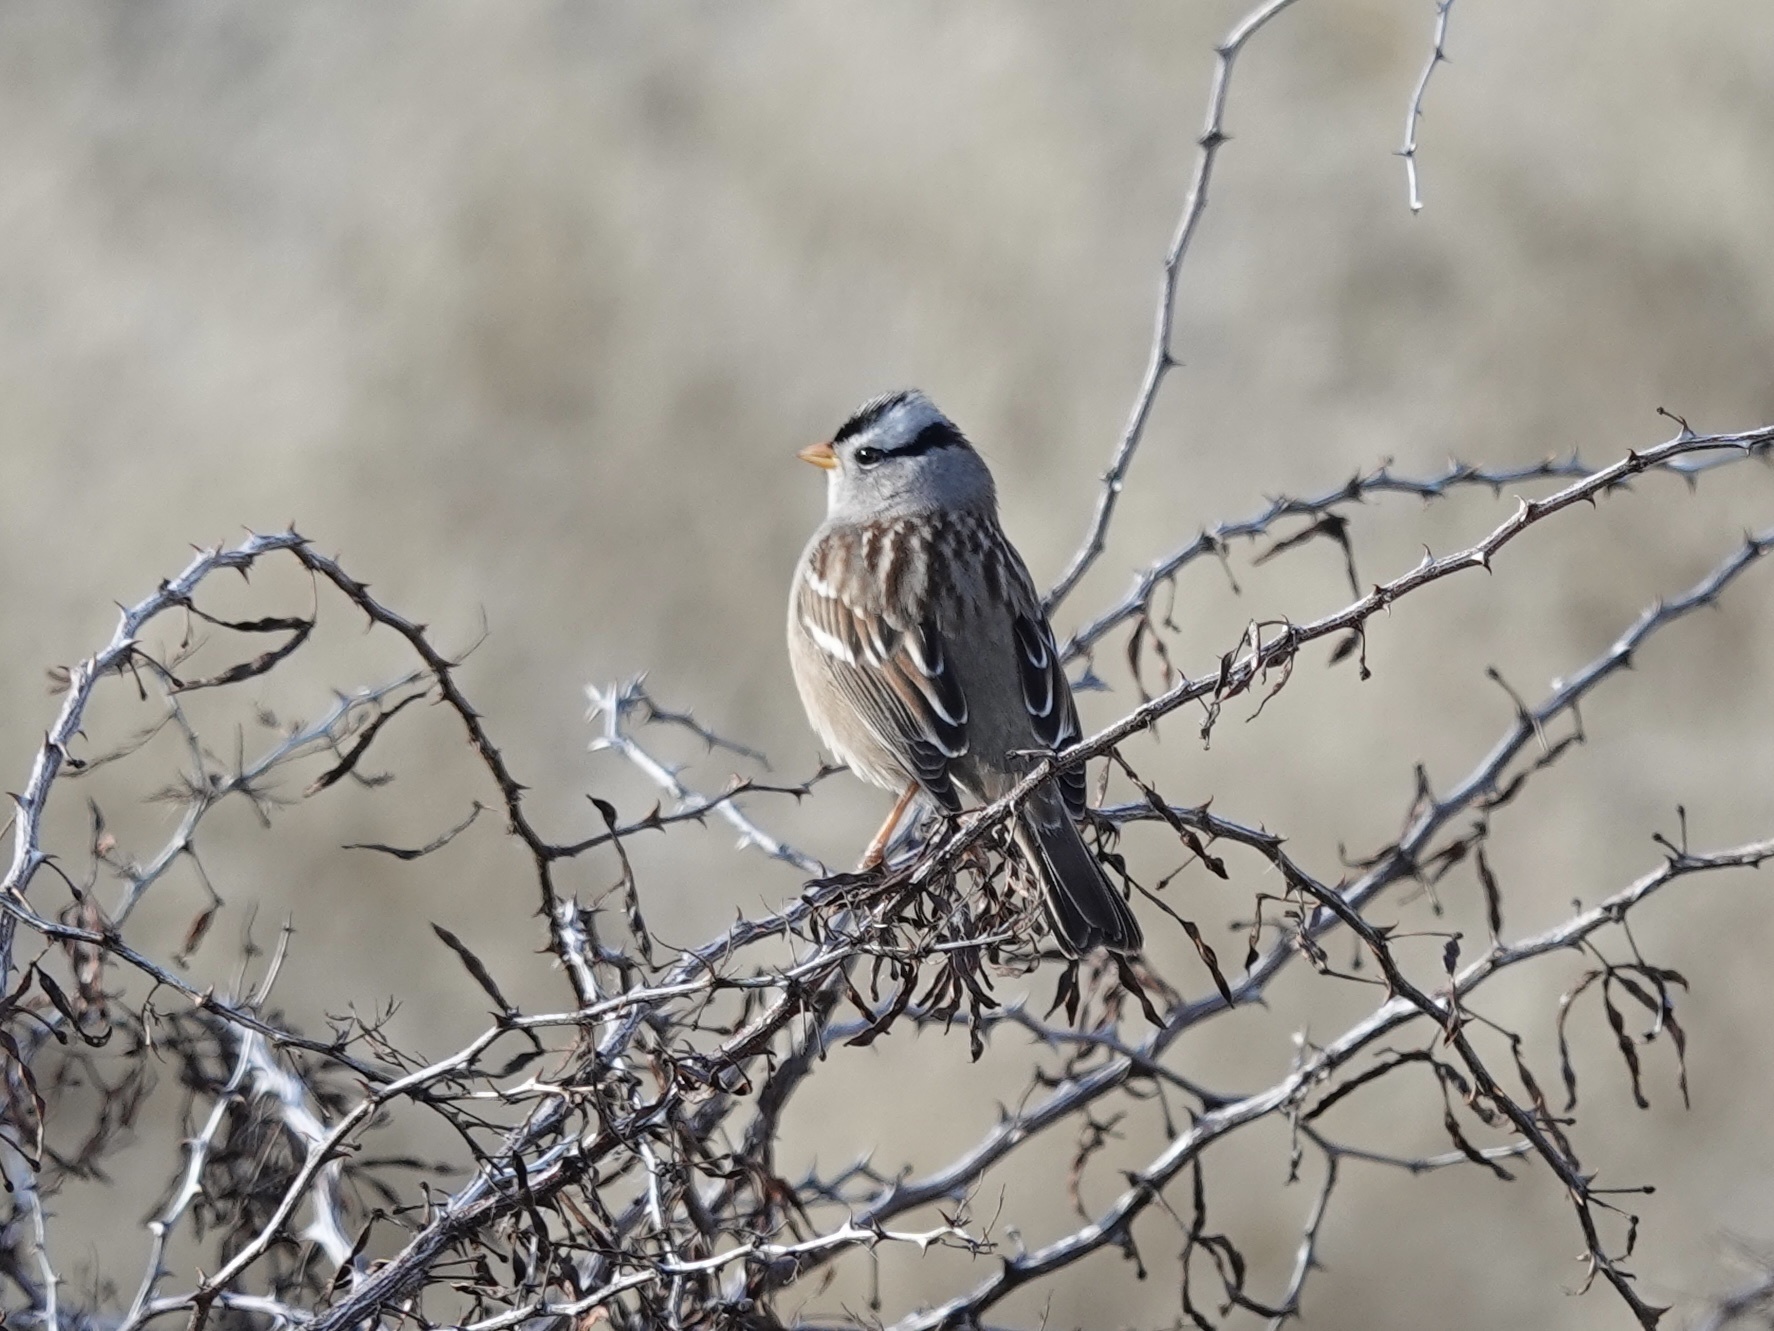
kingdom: Animalia
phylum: Chordata
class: Aves
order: Passeriformes
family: Passerellidae
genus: Zonotrichia
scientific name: Zonotrichia leucophrys
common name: White-crowned sparrow
